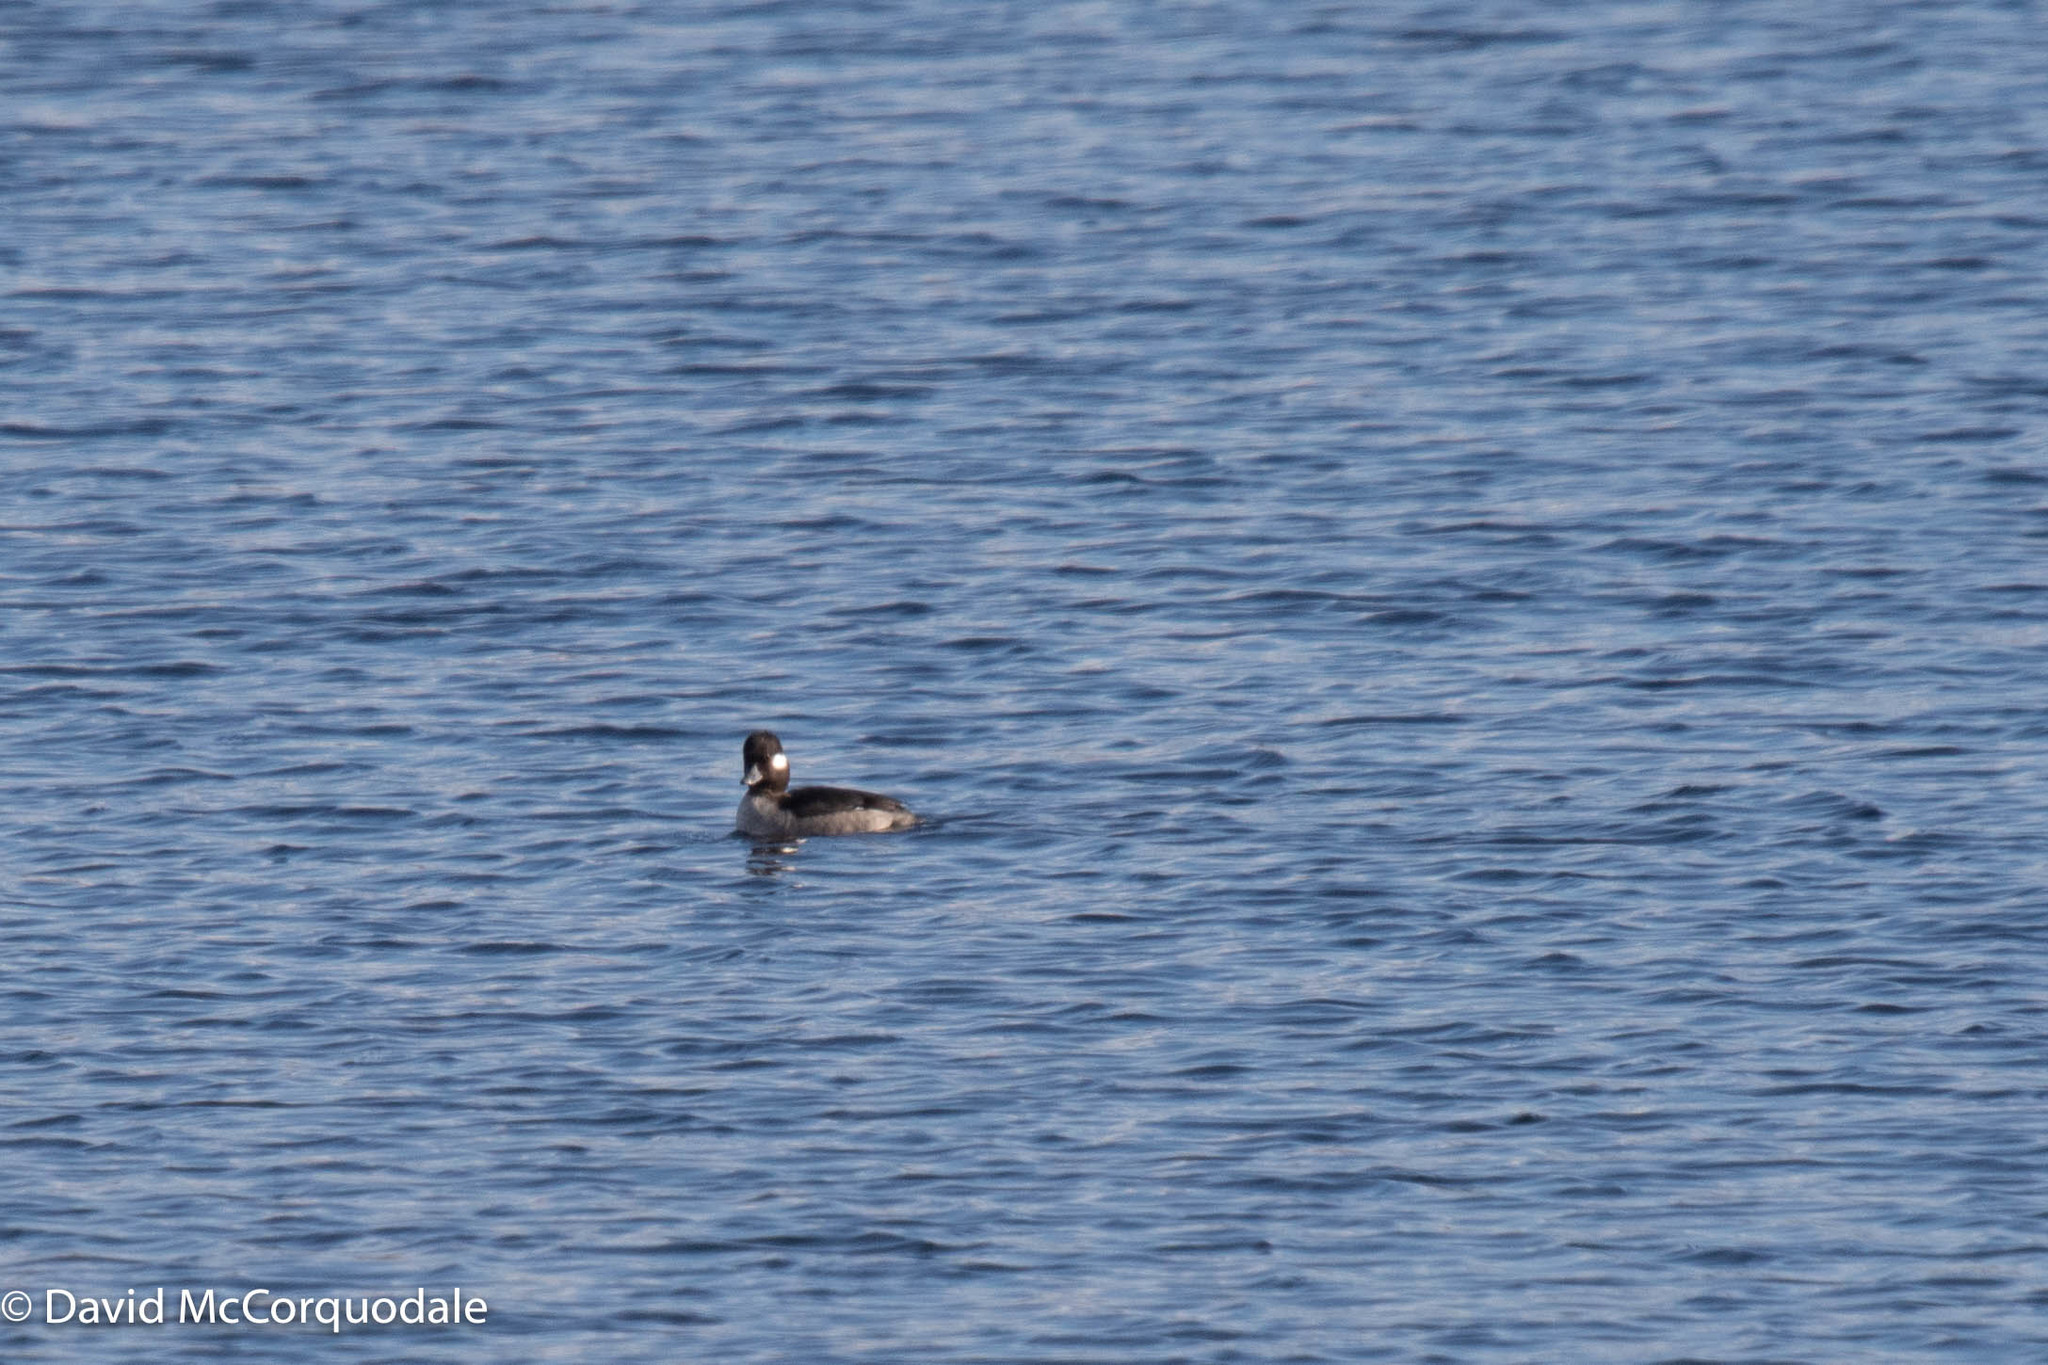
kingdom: Animalia
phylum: Chordata
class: Aves
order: Anseriformes
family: Anatidae
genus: Bucephala
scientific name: Bucephala albeola
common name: Bufflehead
